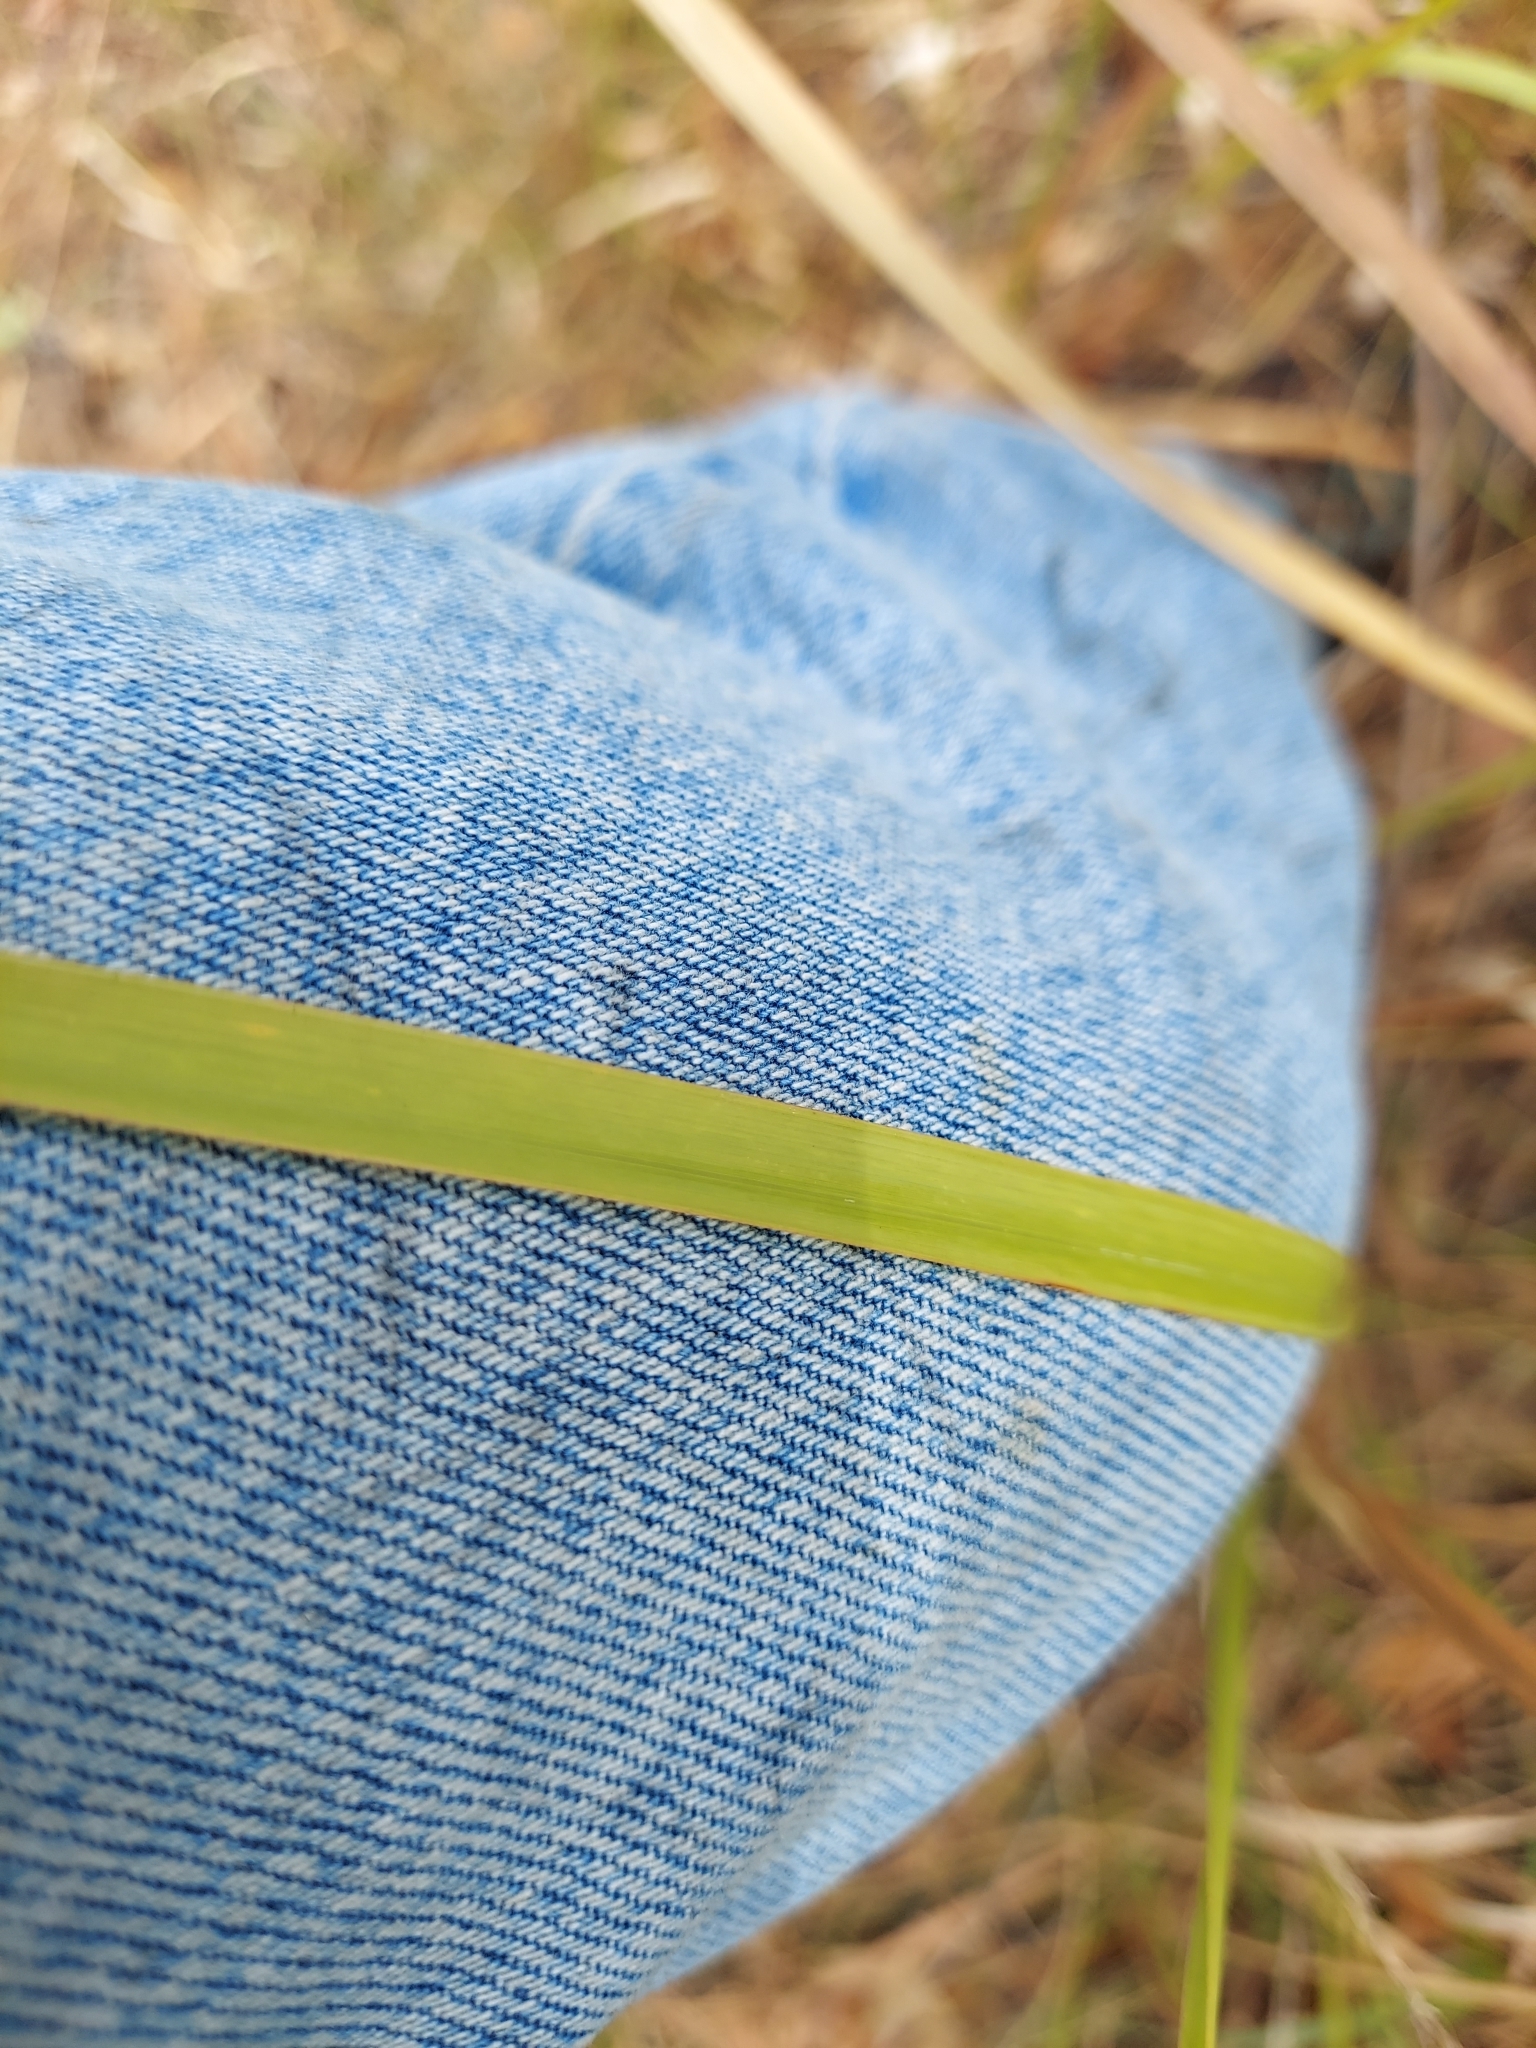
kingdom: Plantae
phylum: Tracheophyta
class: Liliopsida
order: Poales
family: Poaceae
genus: Imperata
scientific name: Imperata cylindrica
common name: Cogongrass
